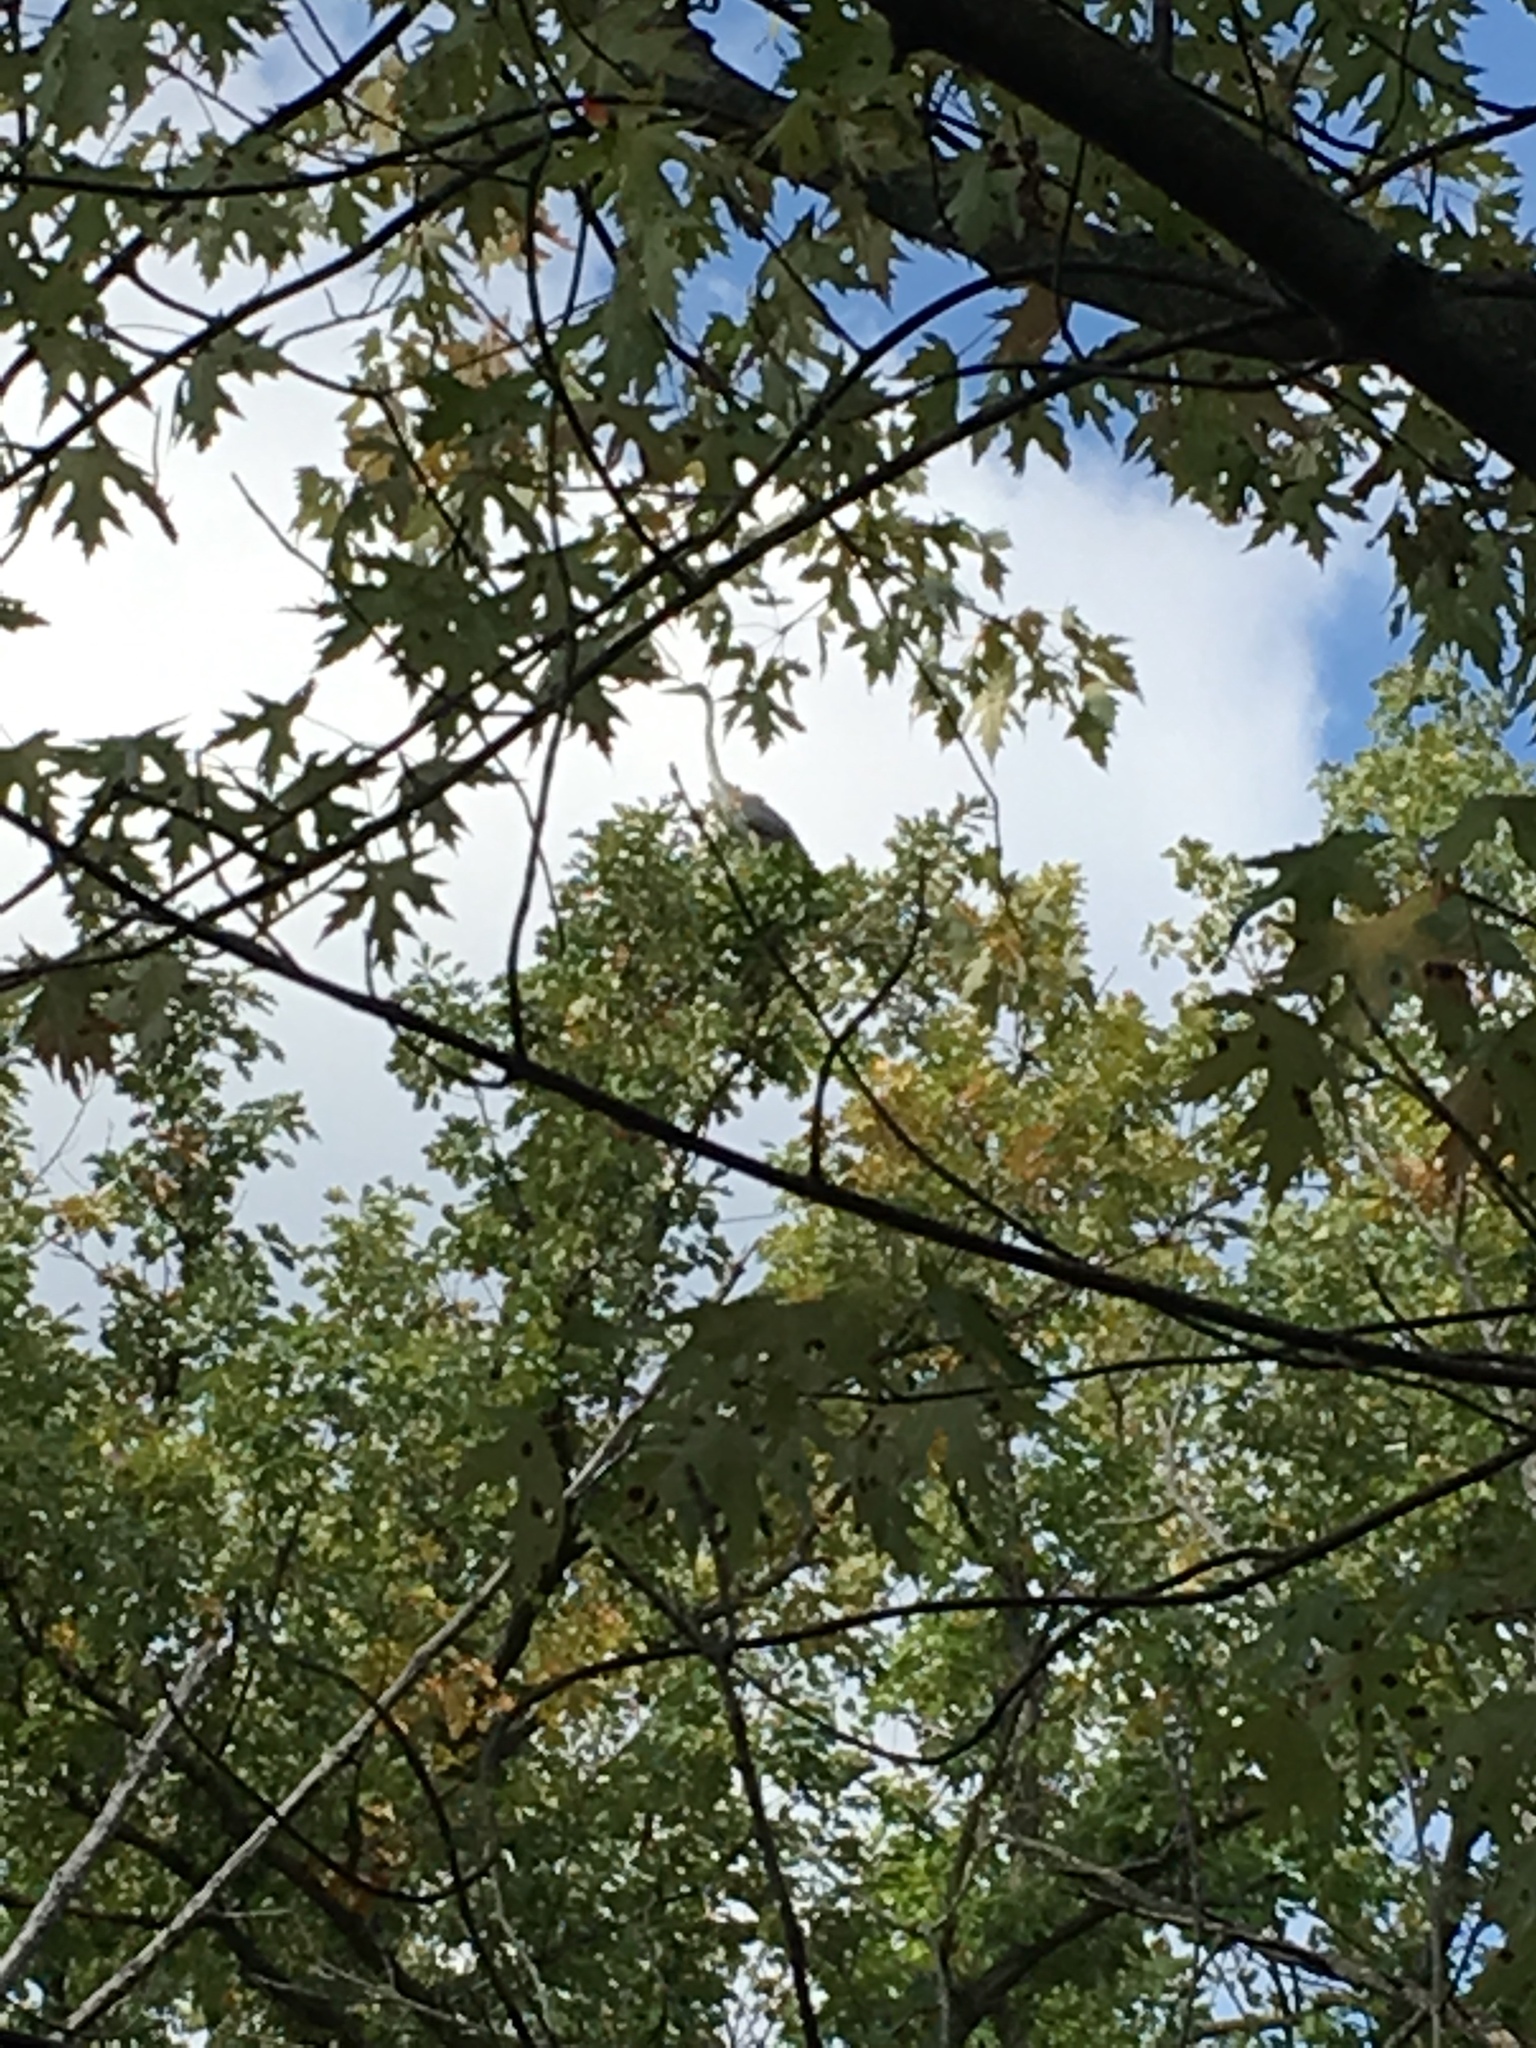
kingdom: Animalia
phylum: Chordata
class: Aves
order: Pelecaniformes
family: Ardeidae
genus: Ardea
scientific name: Ardea herodias
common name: Great blue heron
